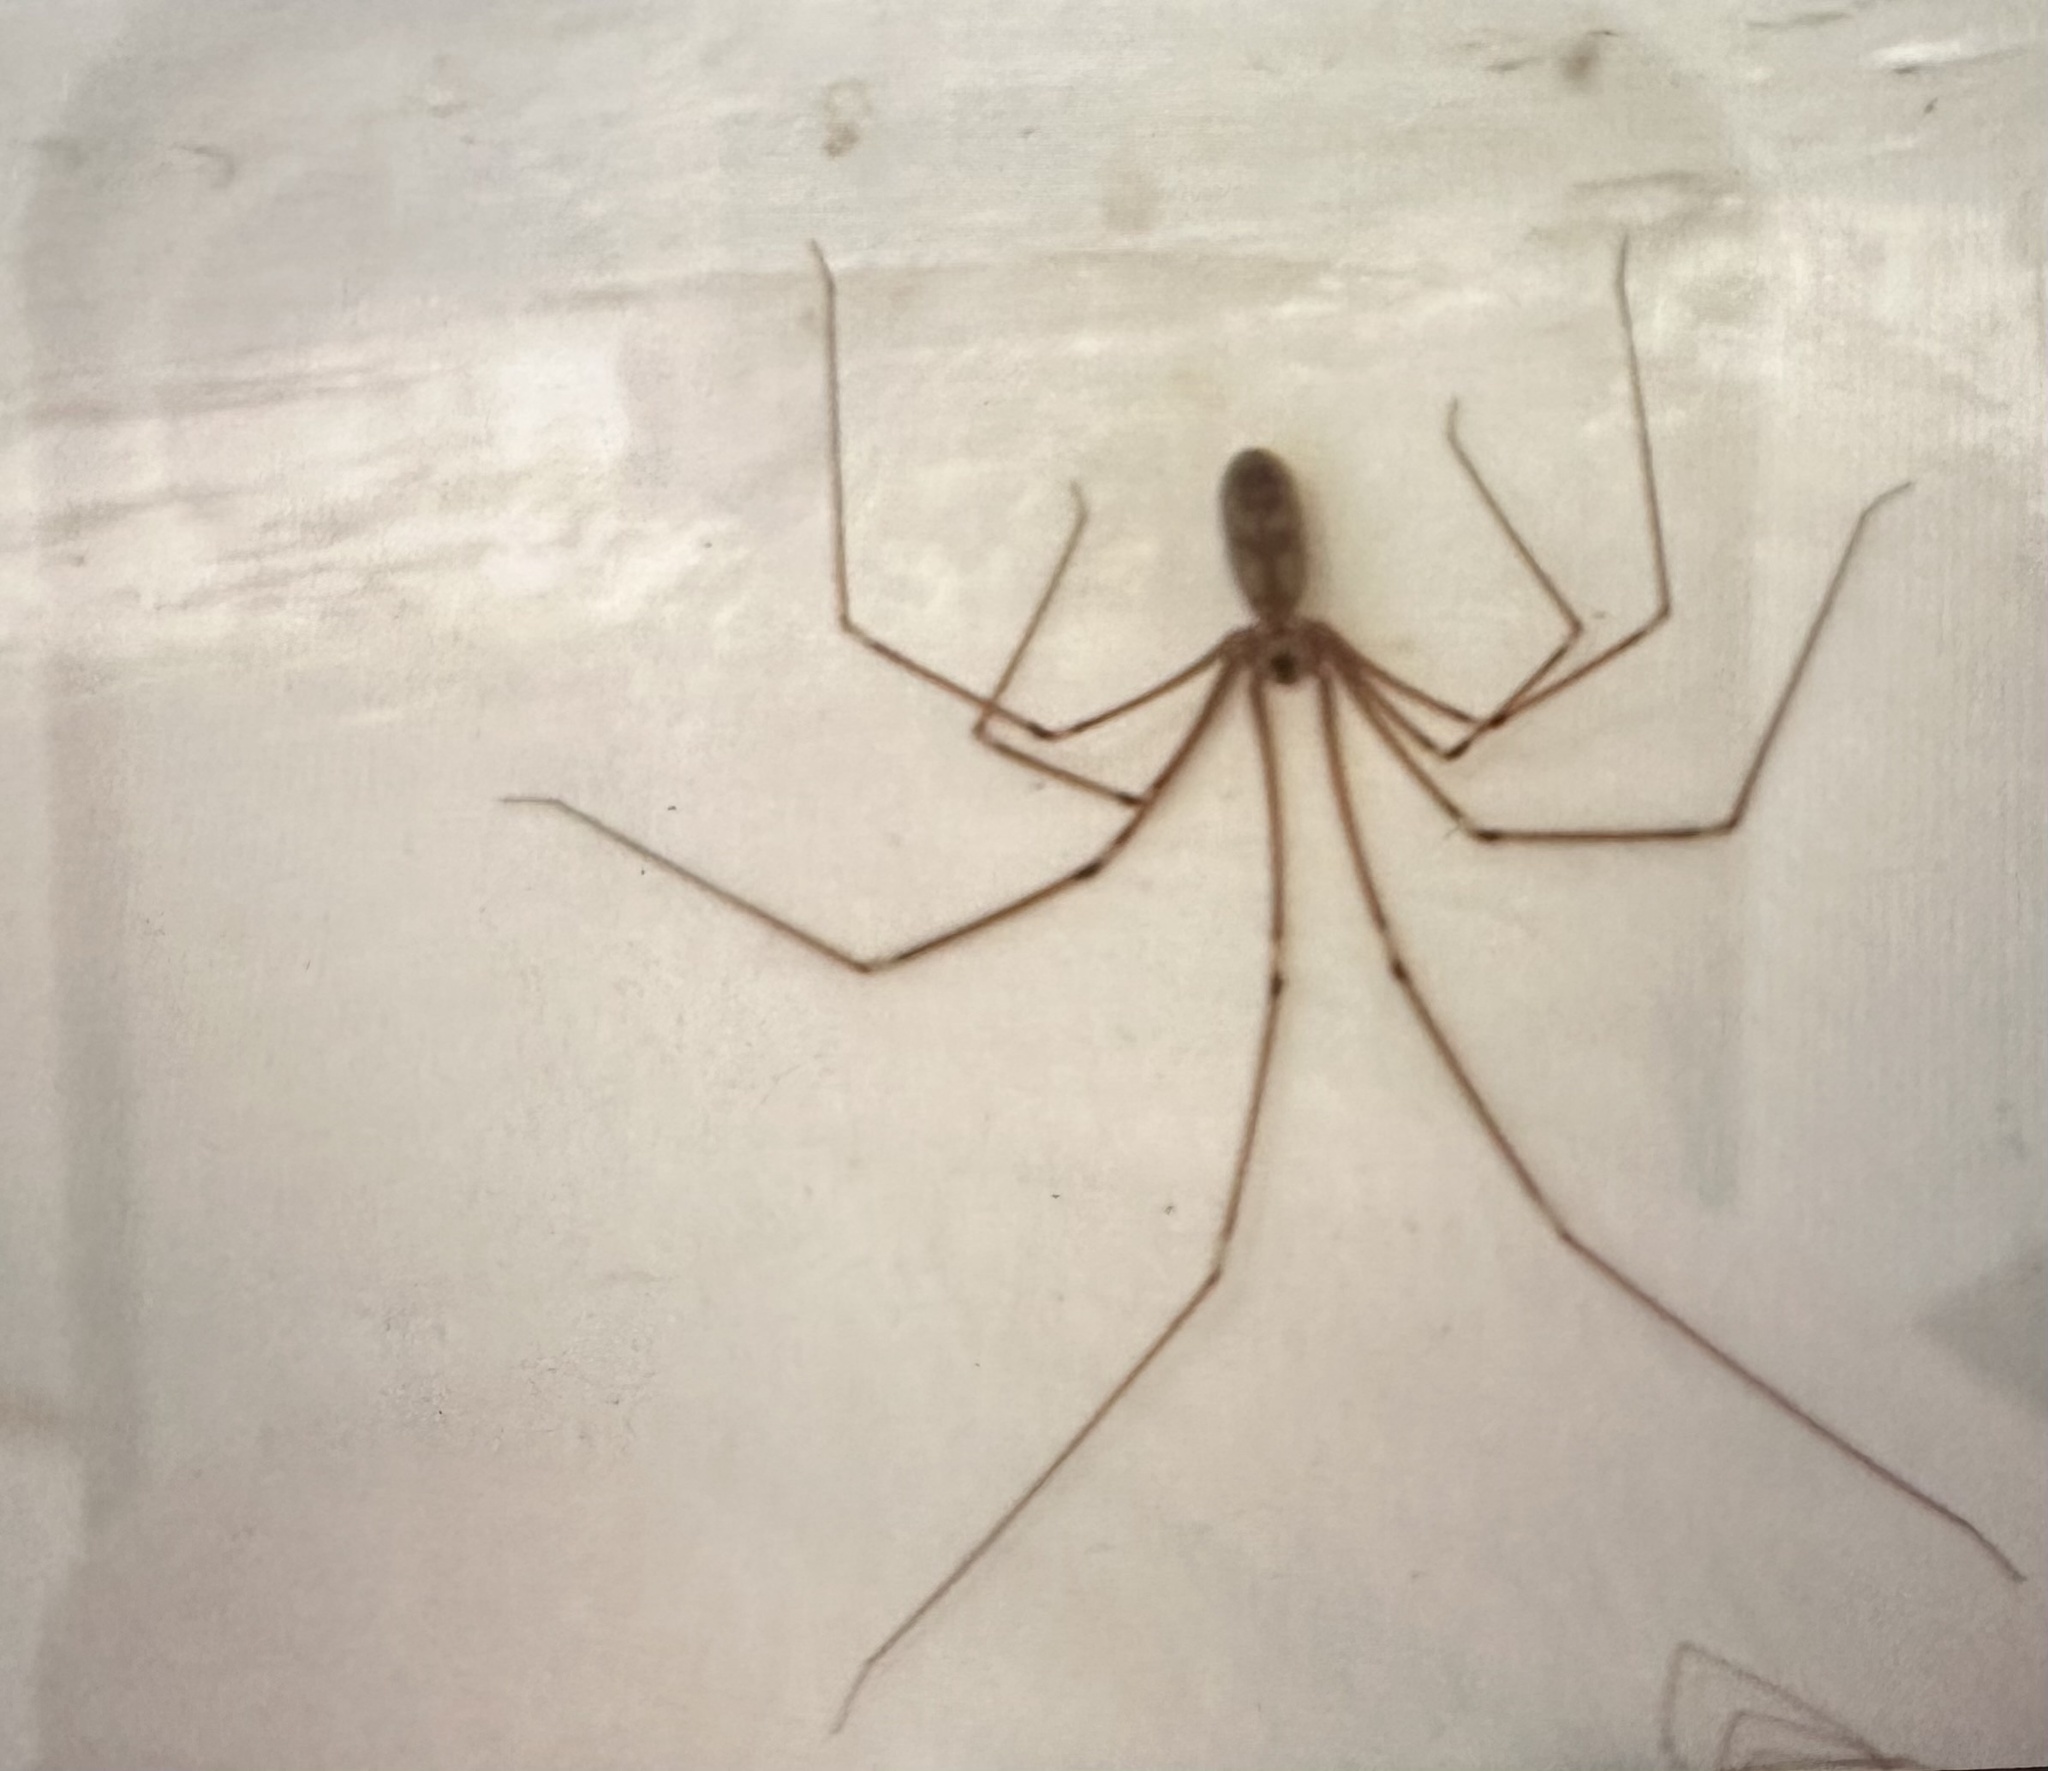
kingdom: Animalia
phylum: Arthropoda
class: Arachnida
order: Araneae
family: Pholcidae
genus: Pholcus
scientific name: Pholcus phalangioides
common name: Longbodied cellar spider
